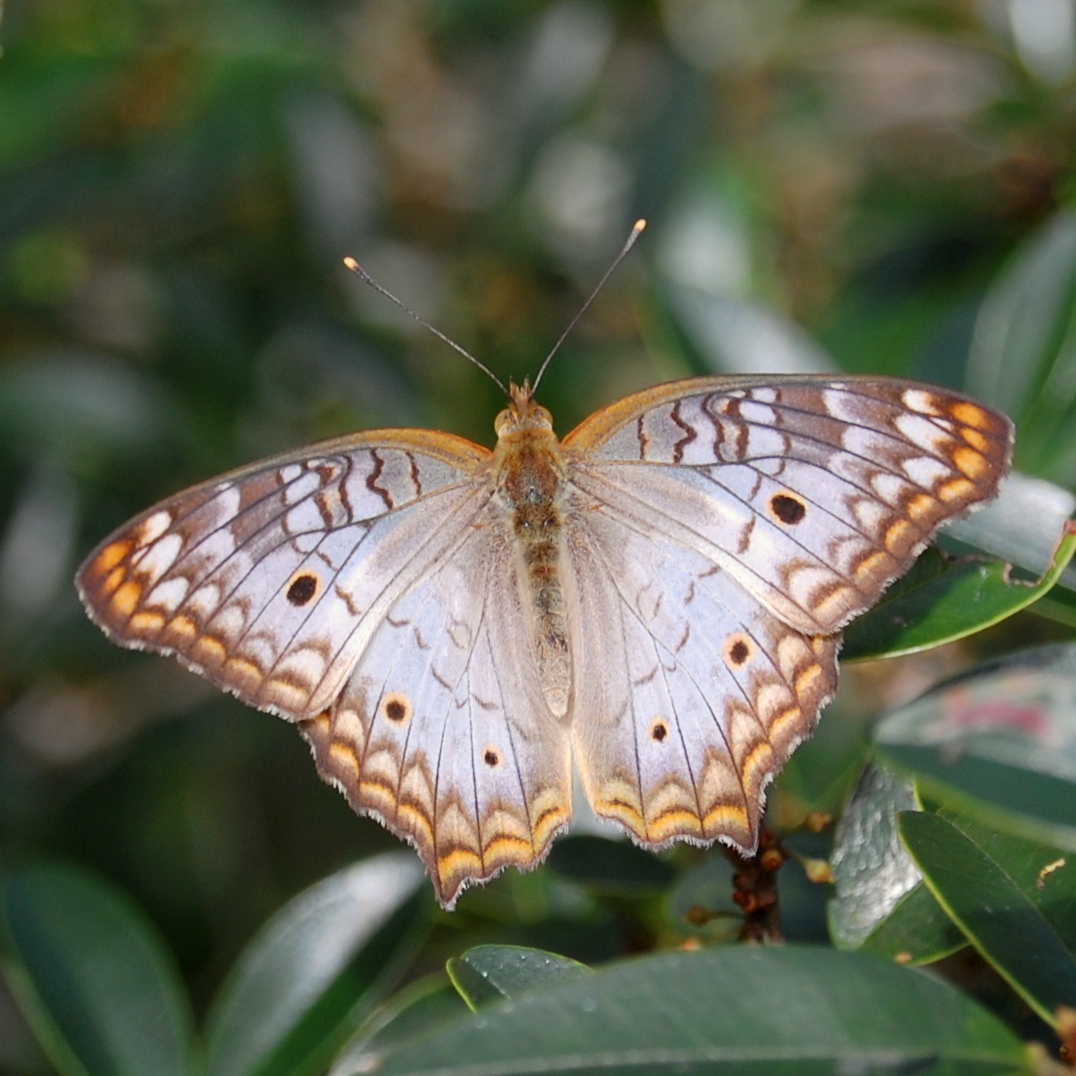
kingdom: Animalia
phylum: Arthropoda
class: Insecta
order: Lepidoptera
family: Nymphalidae
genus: Anartia
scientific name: Anartia jatrophae
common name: White peacock
